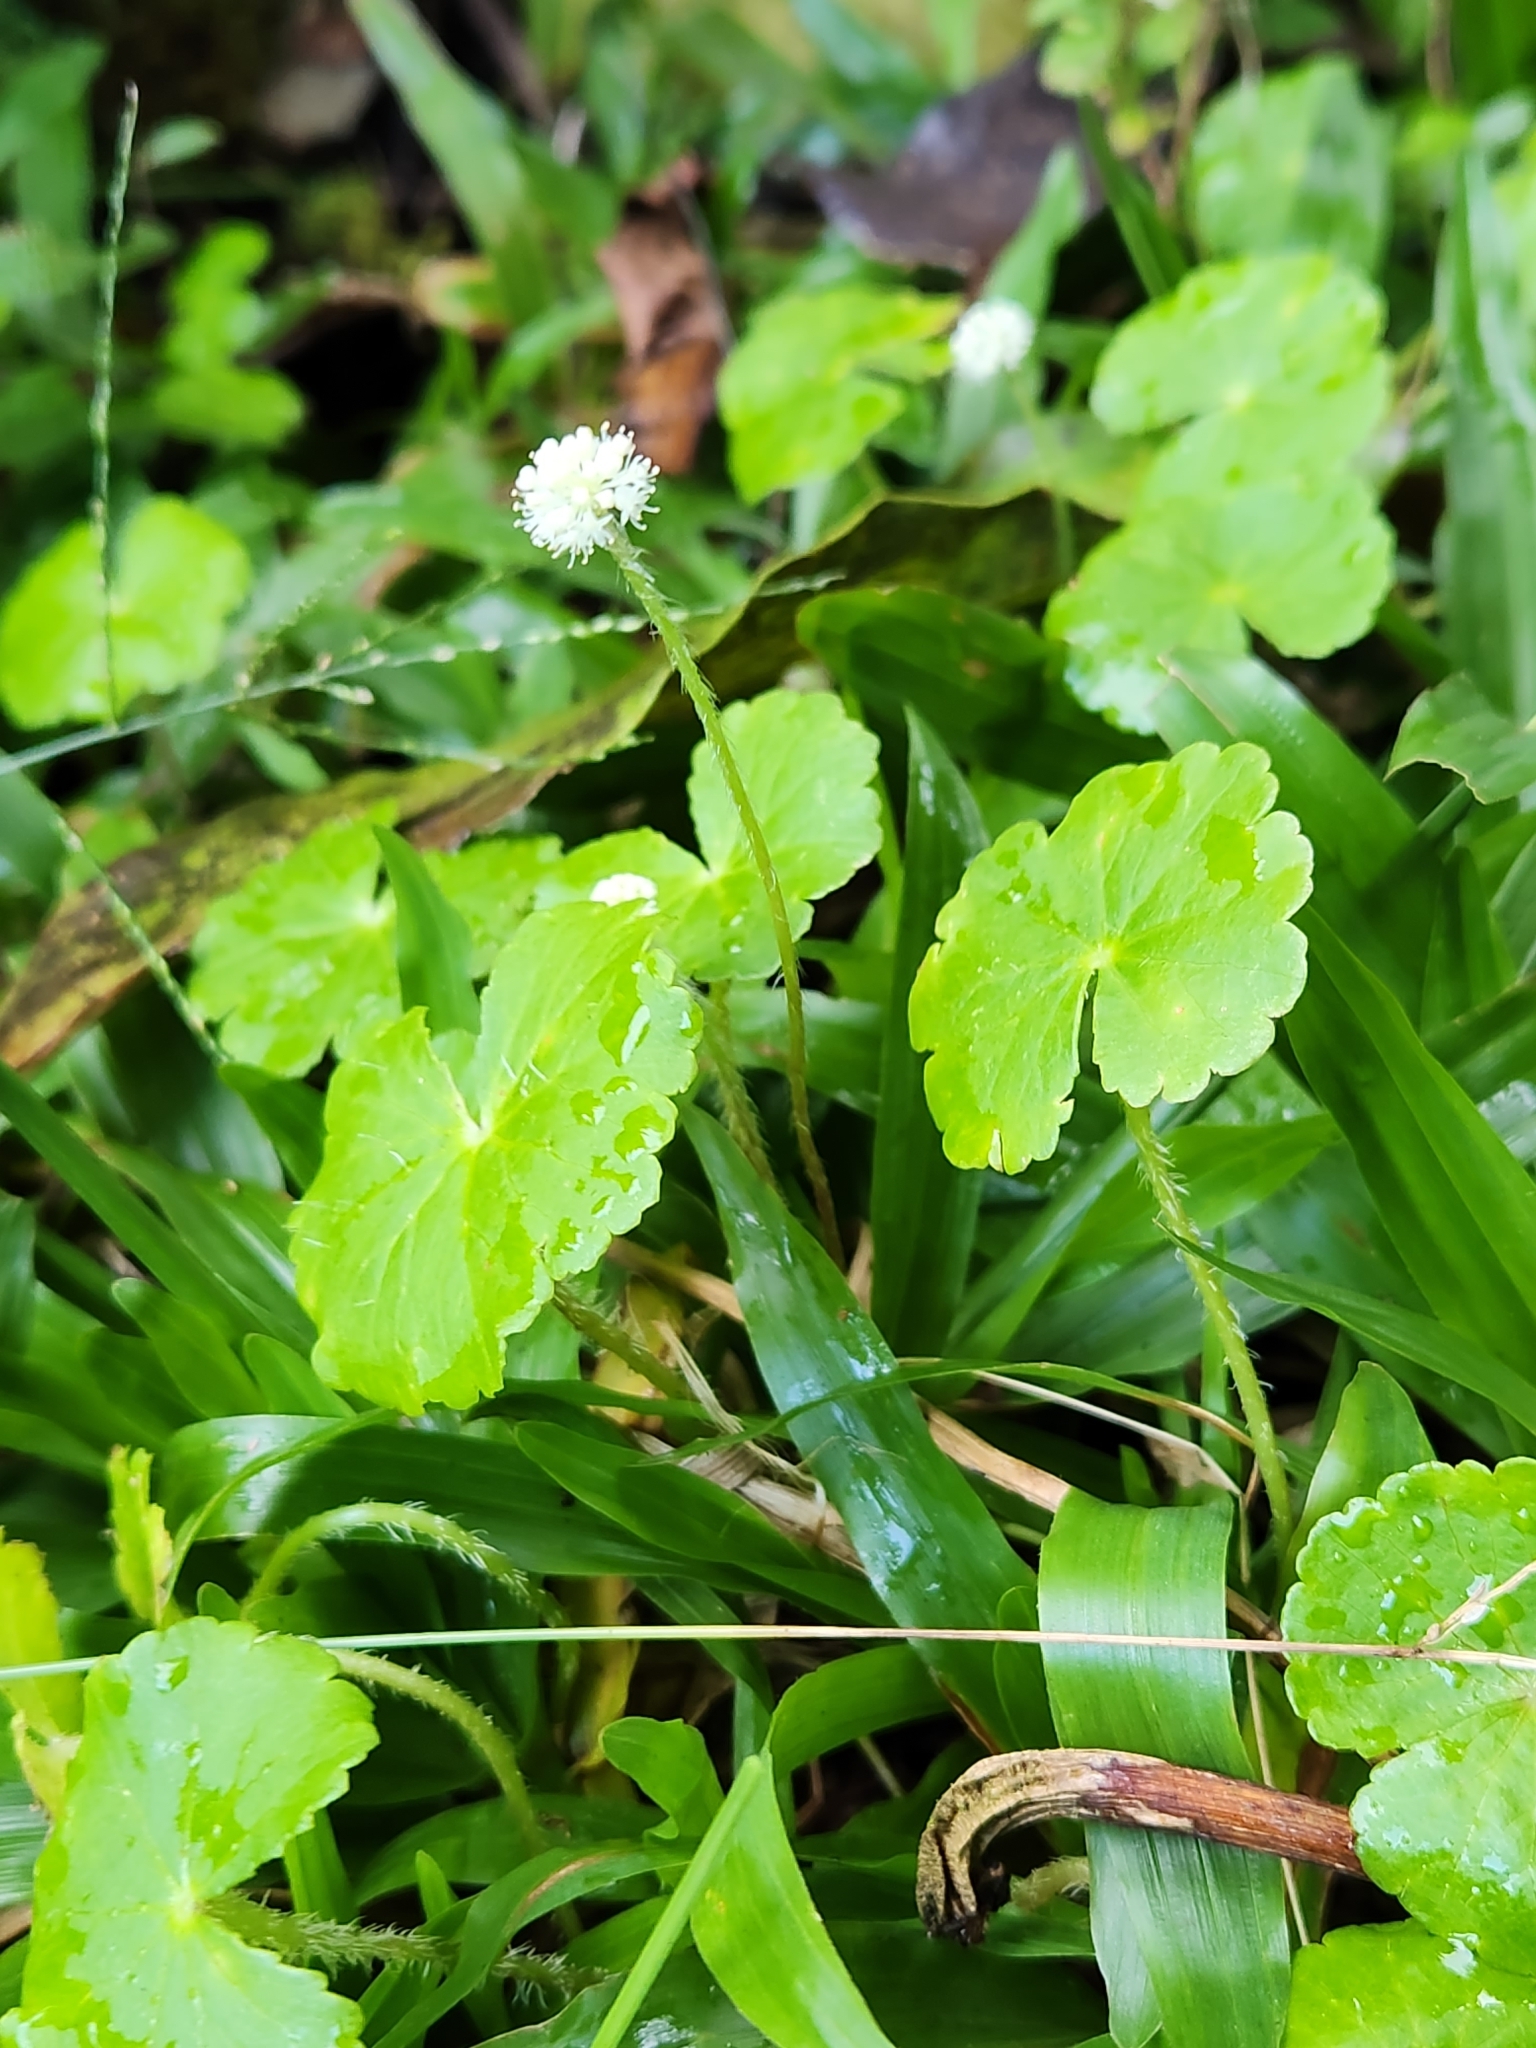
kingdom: Plantae
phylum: Tracheophyta
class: Magnoliopsida
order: Apiales
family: Araliaceae
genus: Hydrocotyle
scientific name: Hydrocotyle leucocephala
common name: Brazilian pennywort
